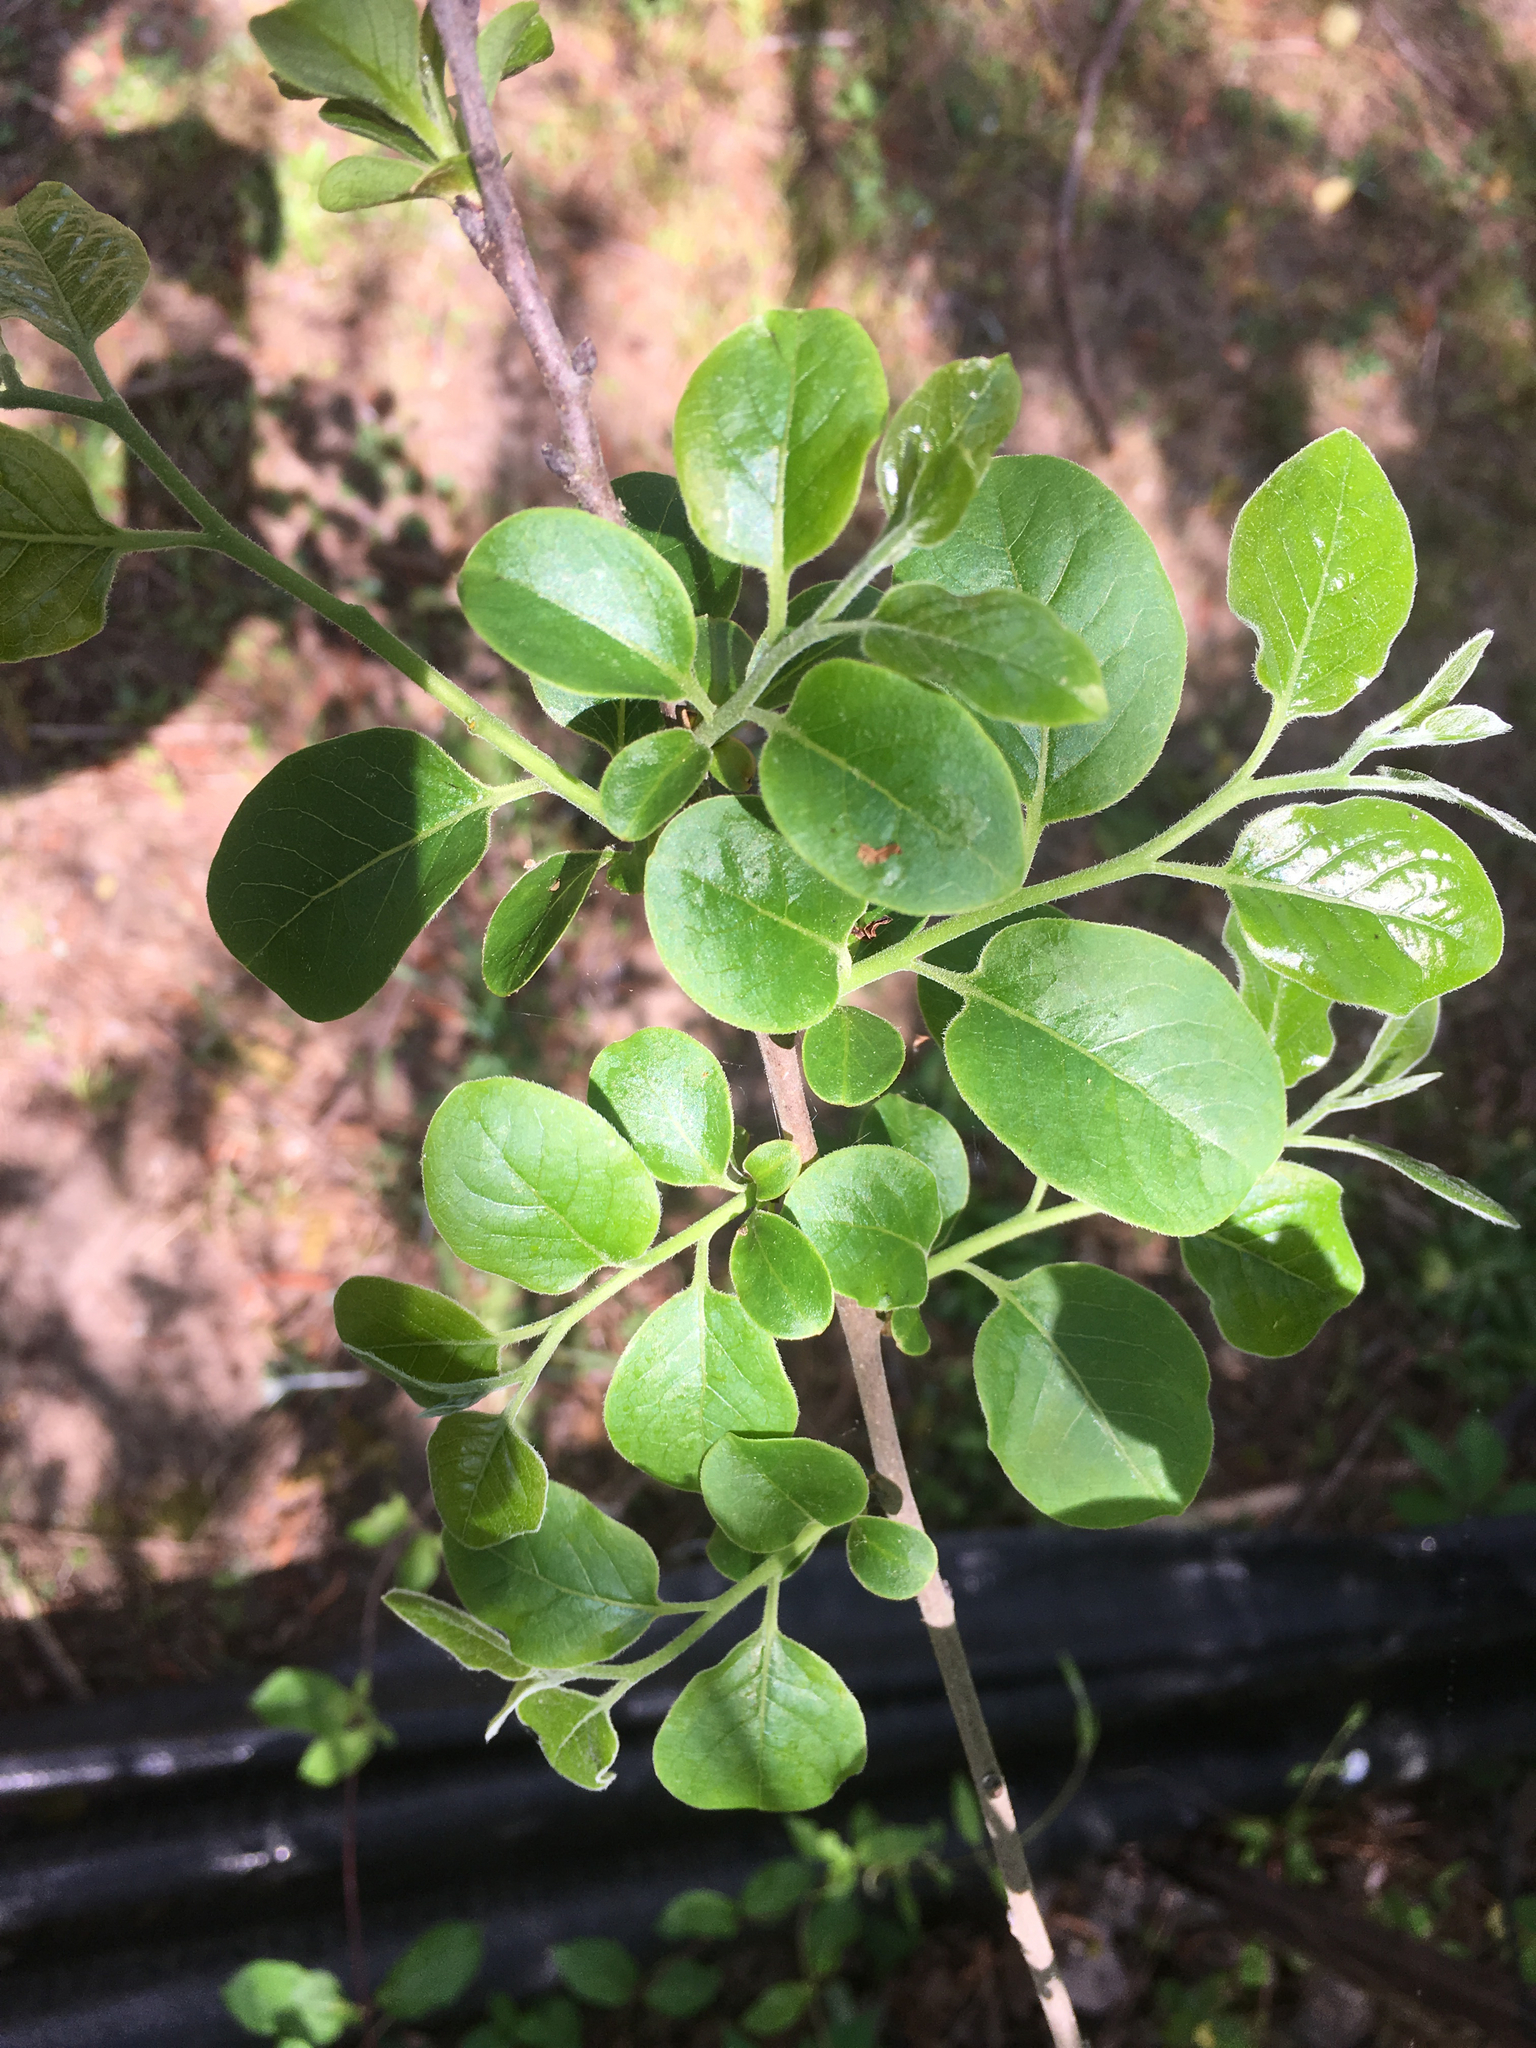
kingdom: Plantae
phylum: Tracheophyta
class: Magnoliopsida
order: Ericales
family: Ebenaceae
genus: Diospyros
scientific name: Diospyros virginiana
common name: Persimmon
